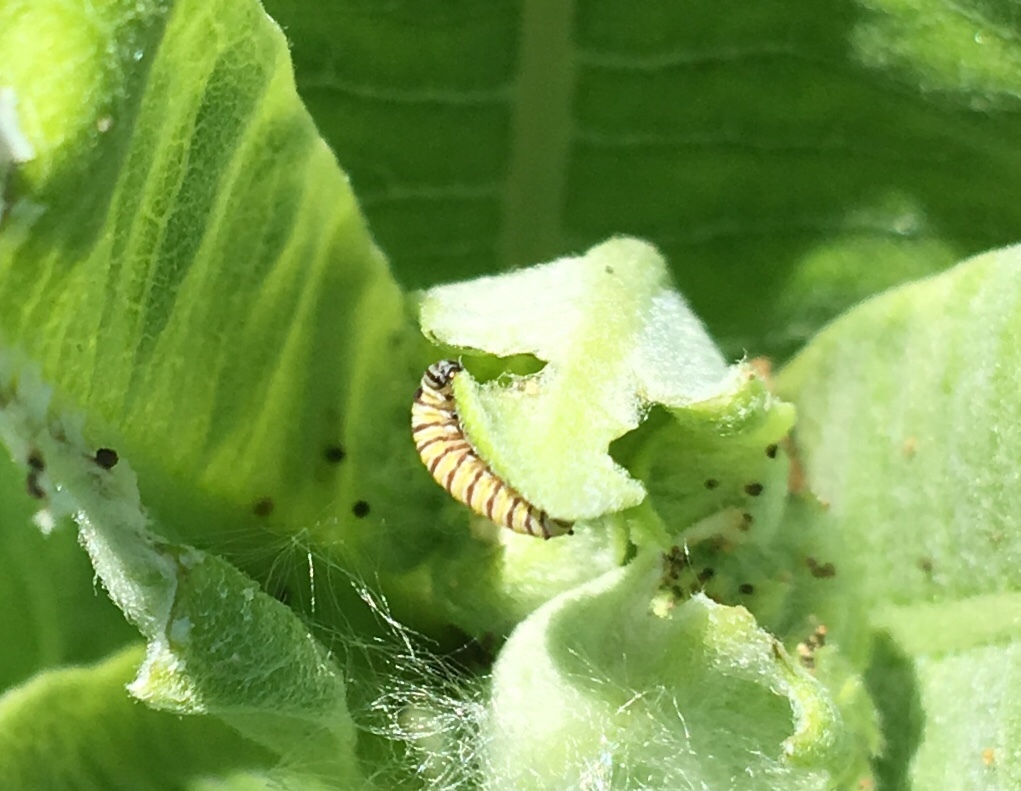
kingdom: Animalia
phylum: Arthropoda
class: Insecta
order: Lepidoptera
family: Nymphalidae
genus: Danaus
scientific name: Danaus plexippus
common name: Monarch
